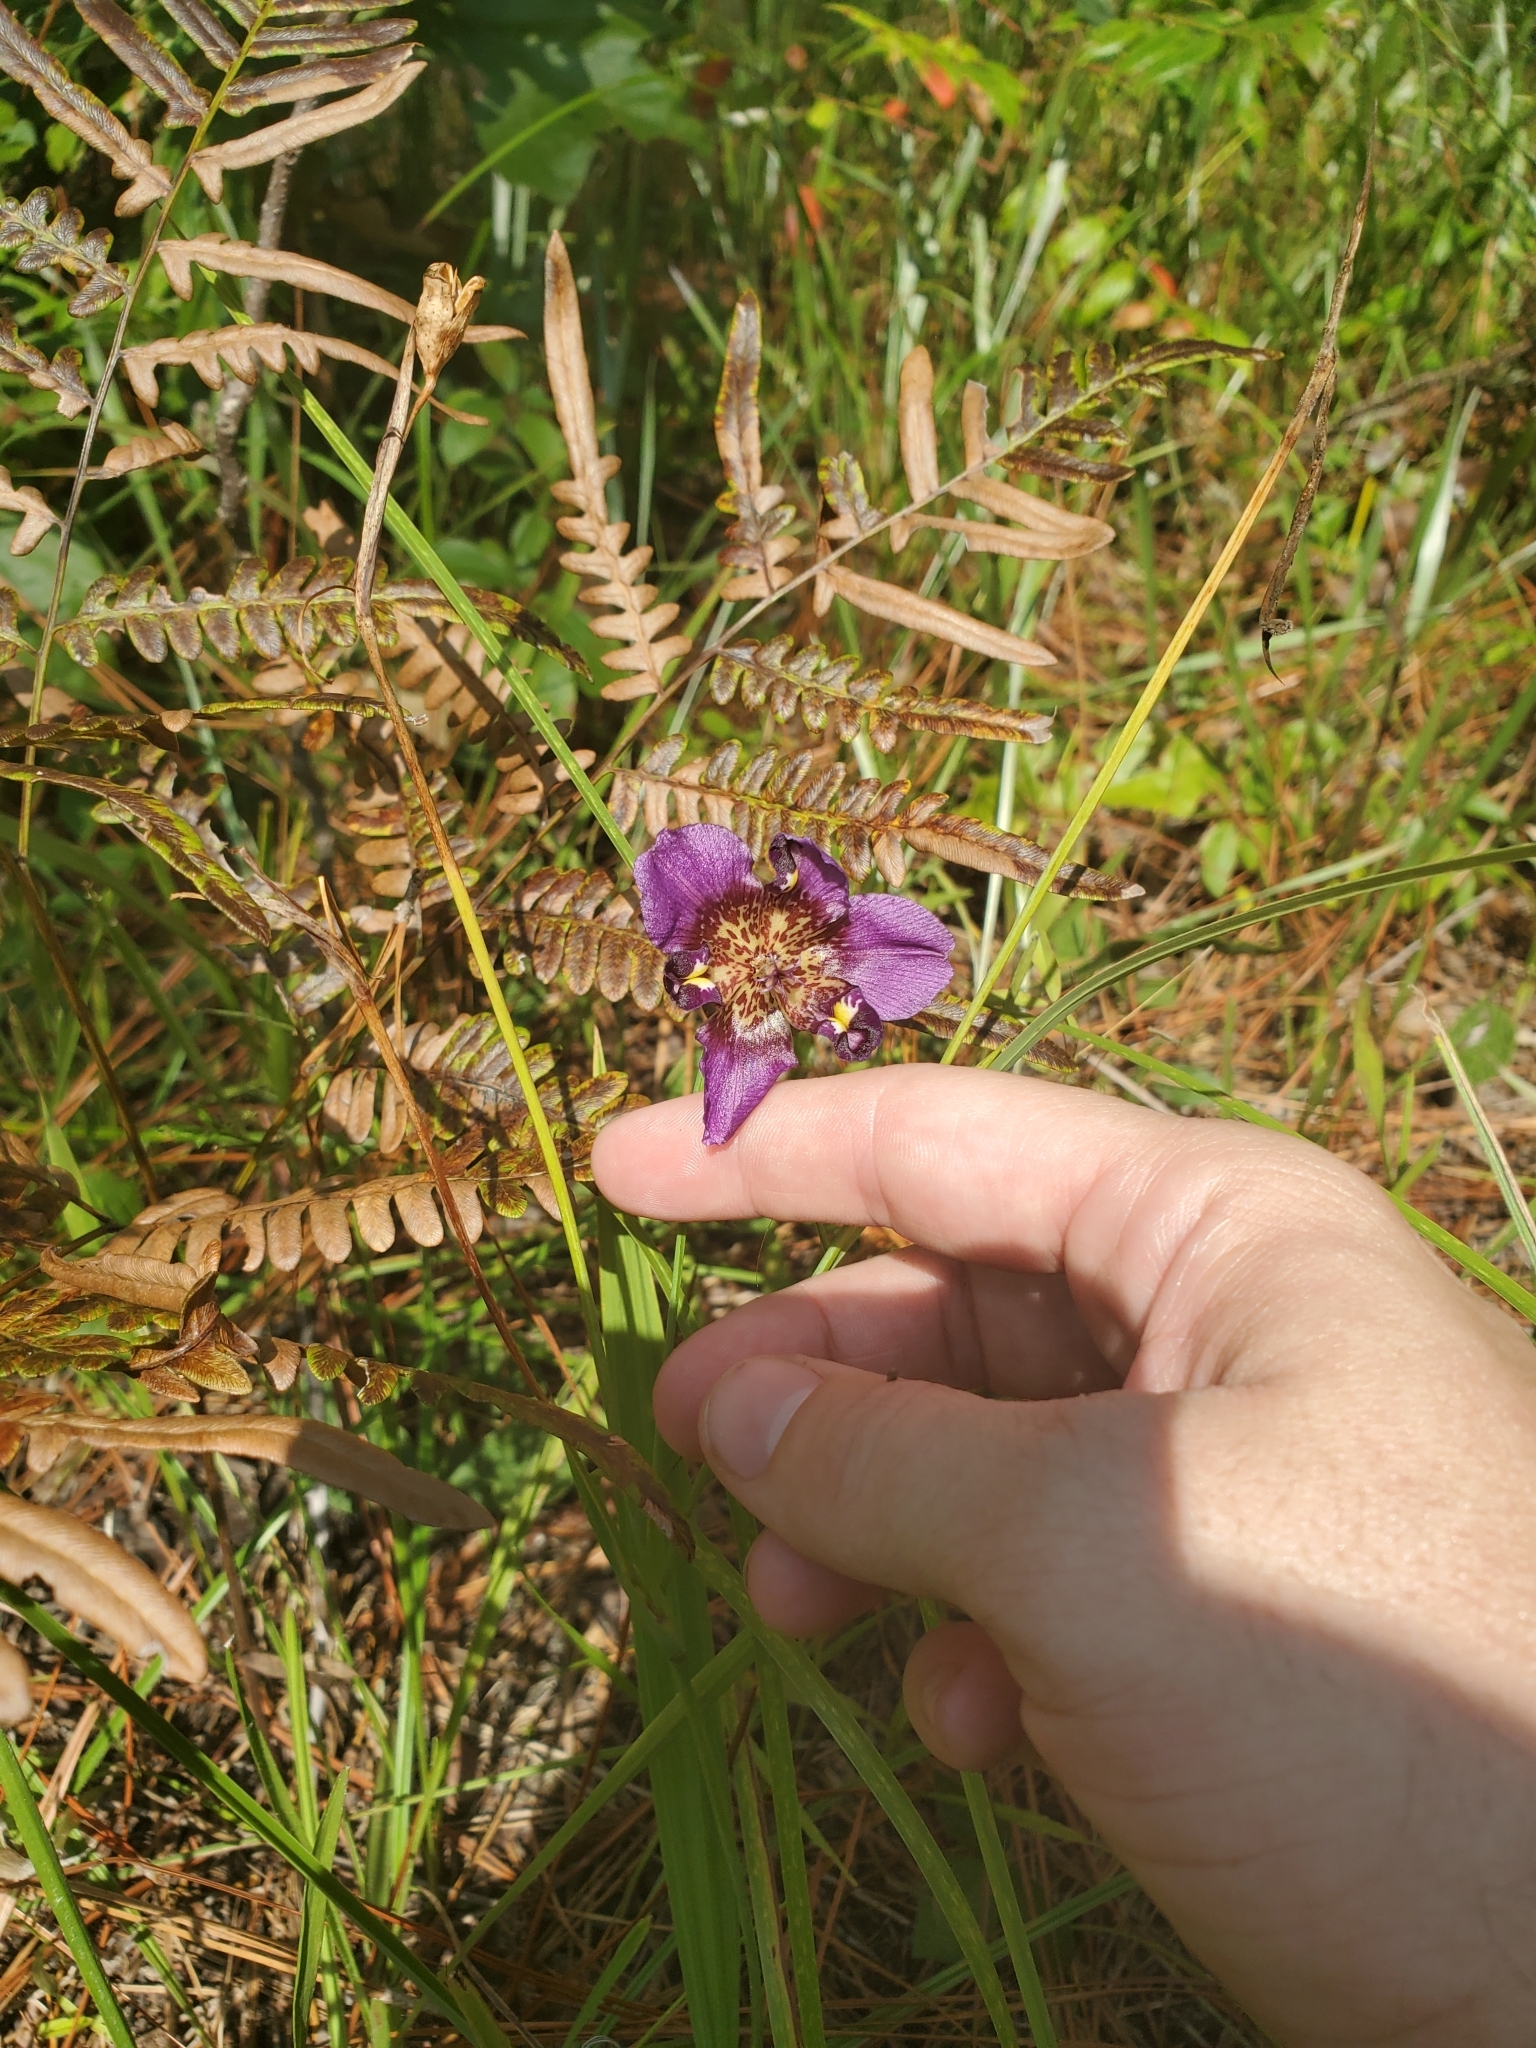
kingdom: Plantae
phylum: Tracheophyta
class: Liliopsida
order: Asparagales
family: Iridaceae
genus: Alophia
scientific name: Alophia drummondii
